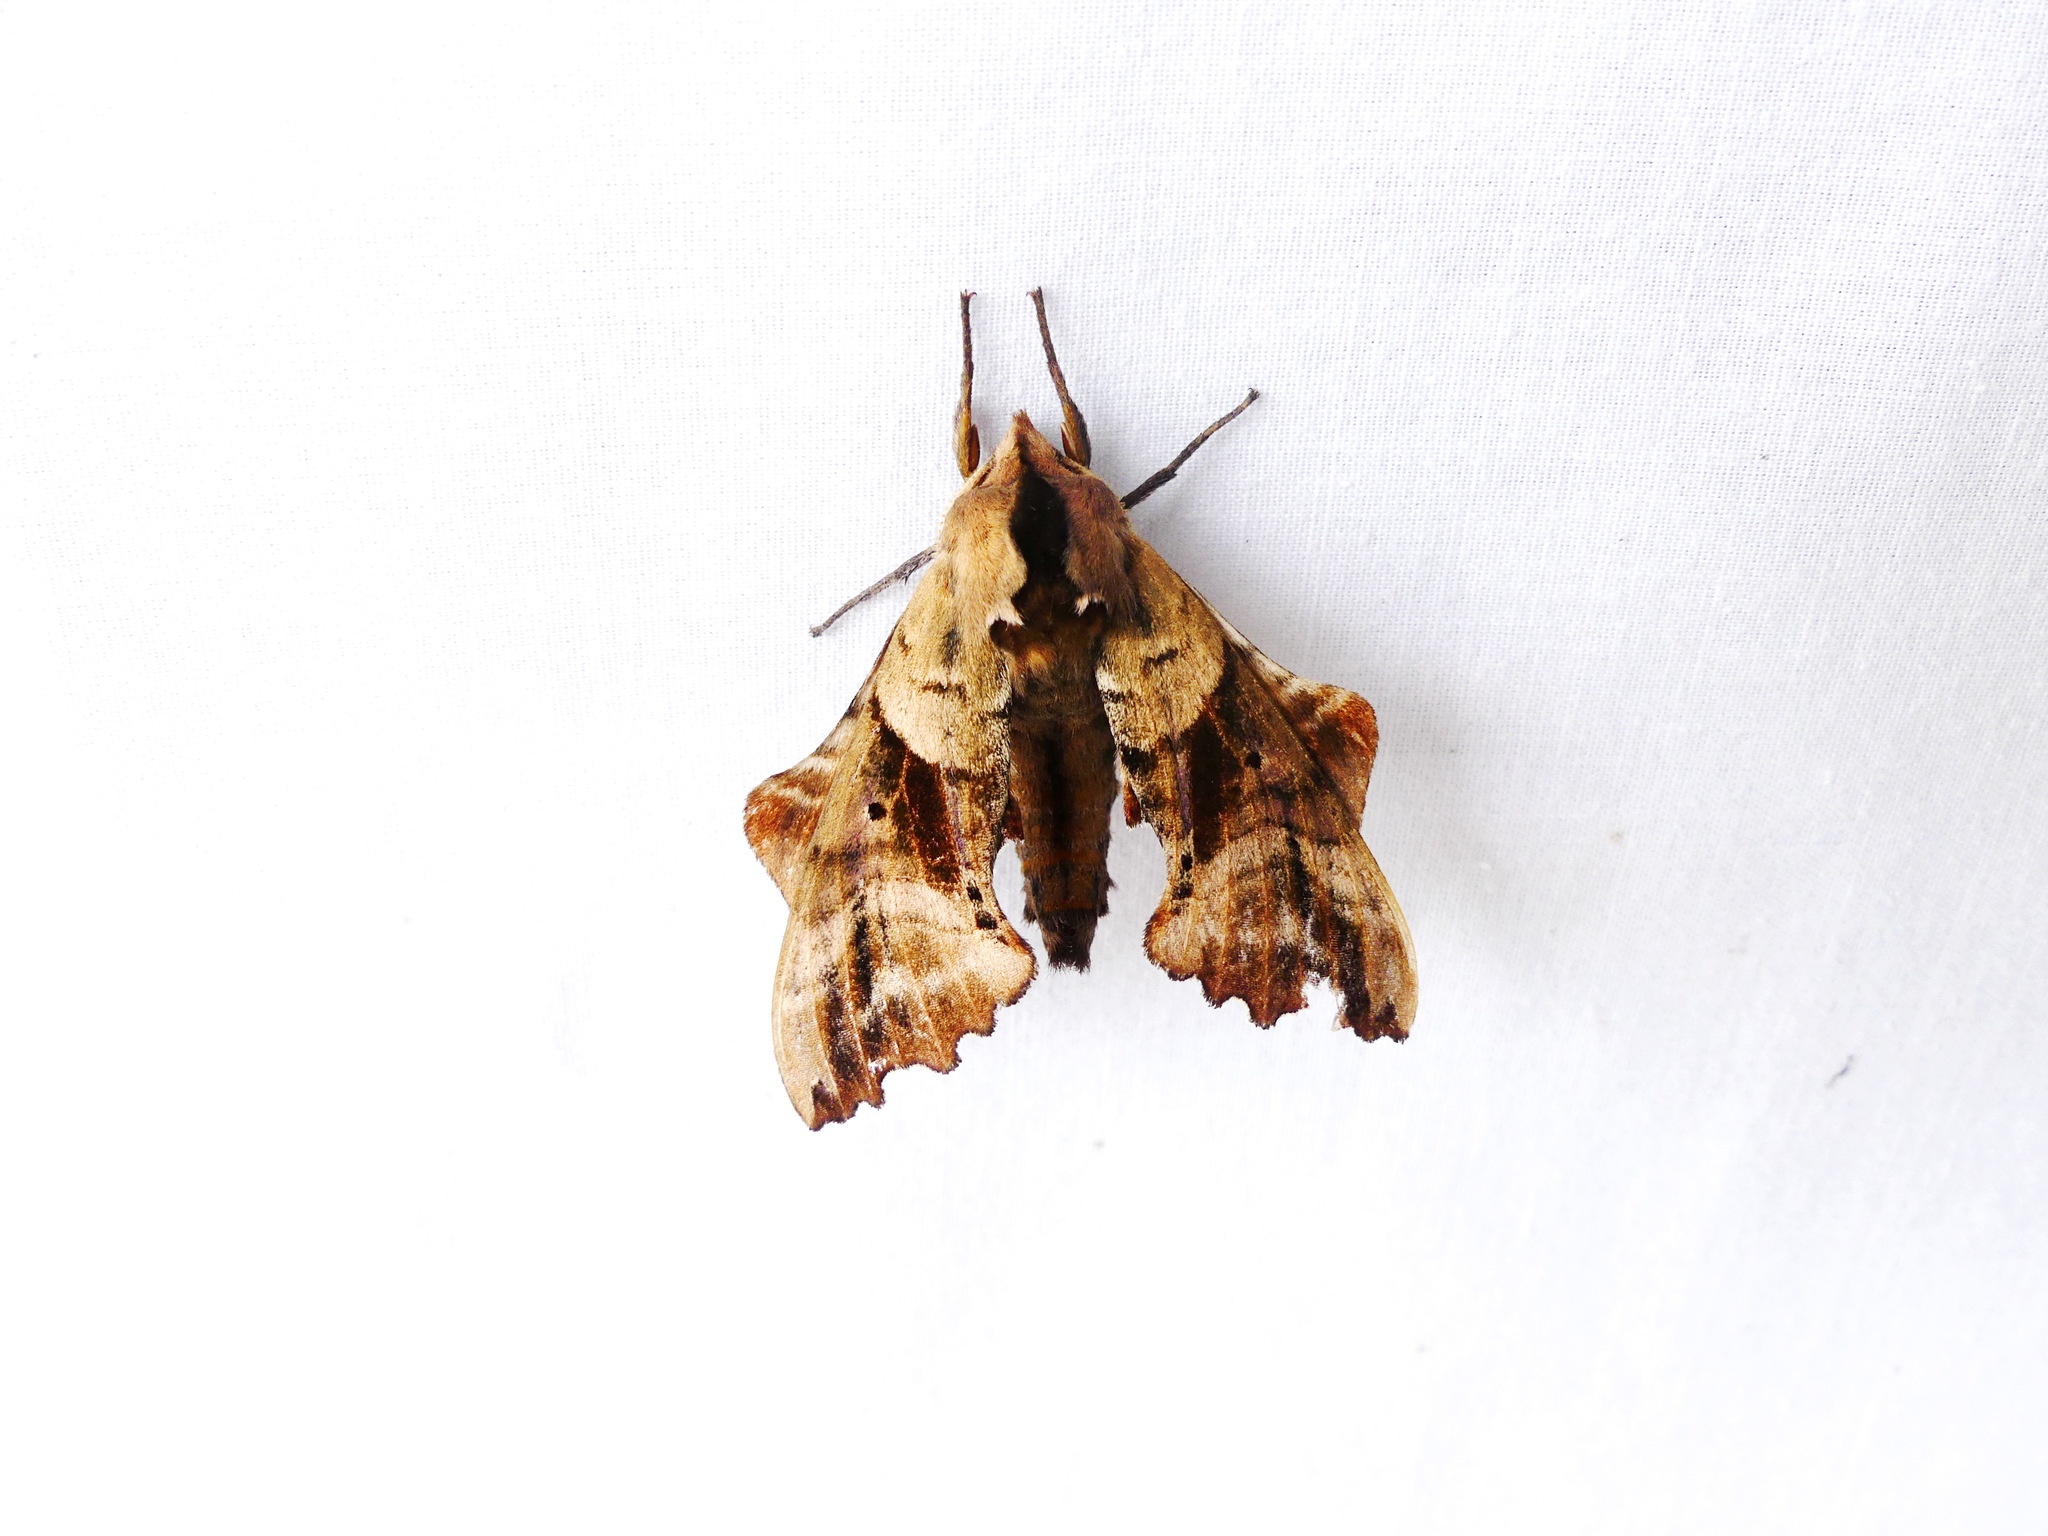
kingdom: Animalia
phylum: Arthropoda
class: Insecta
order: Lepidoptera
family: Sphingidae
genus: Paonias
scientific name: Paonias excaecata
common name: Blind-eyed sphinx
